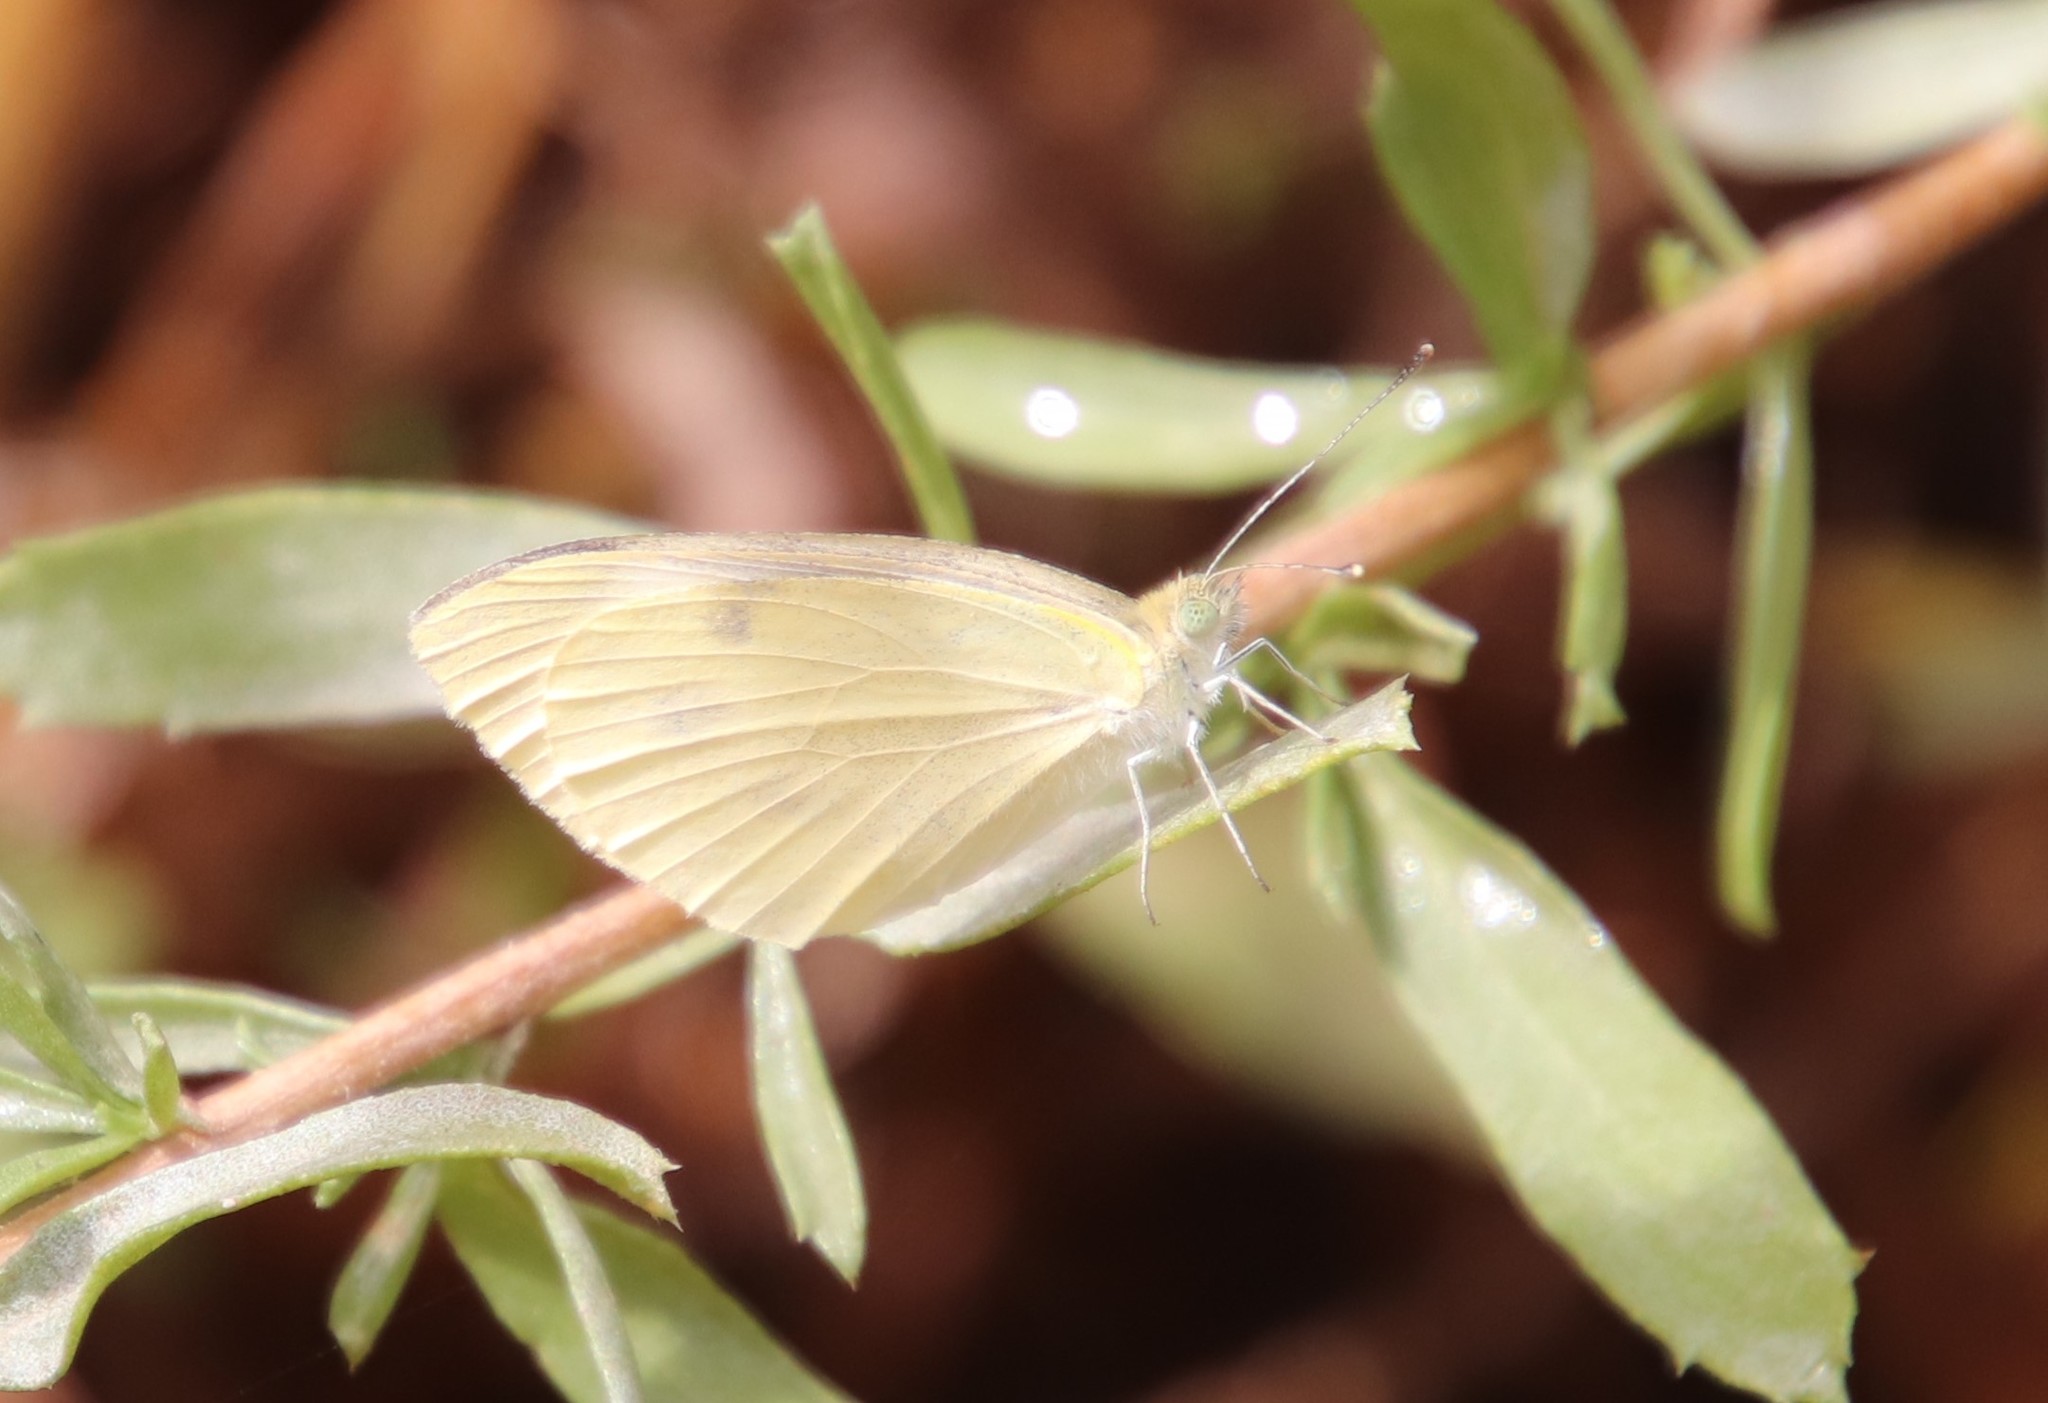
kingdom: Animalia
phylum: Arthropoda
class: Insecta
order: Lepidoptera
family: Pieridae
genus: Pieris
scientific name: Pieris rapae
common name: Small white
